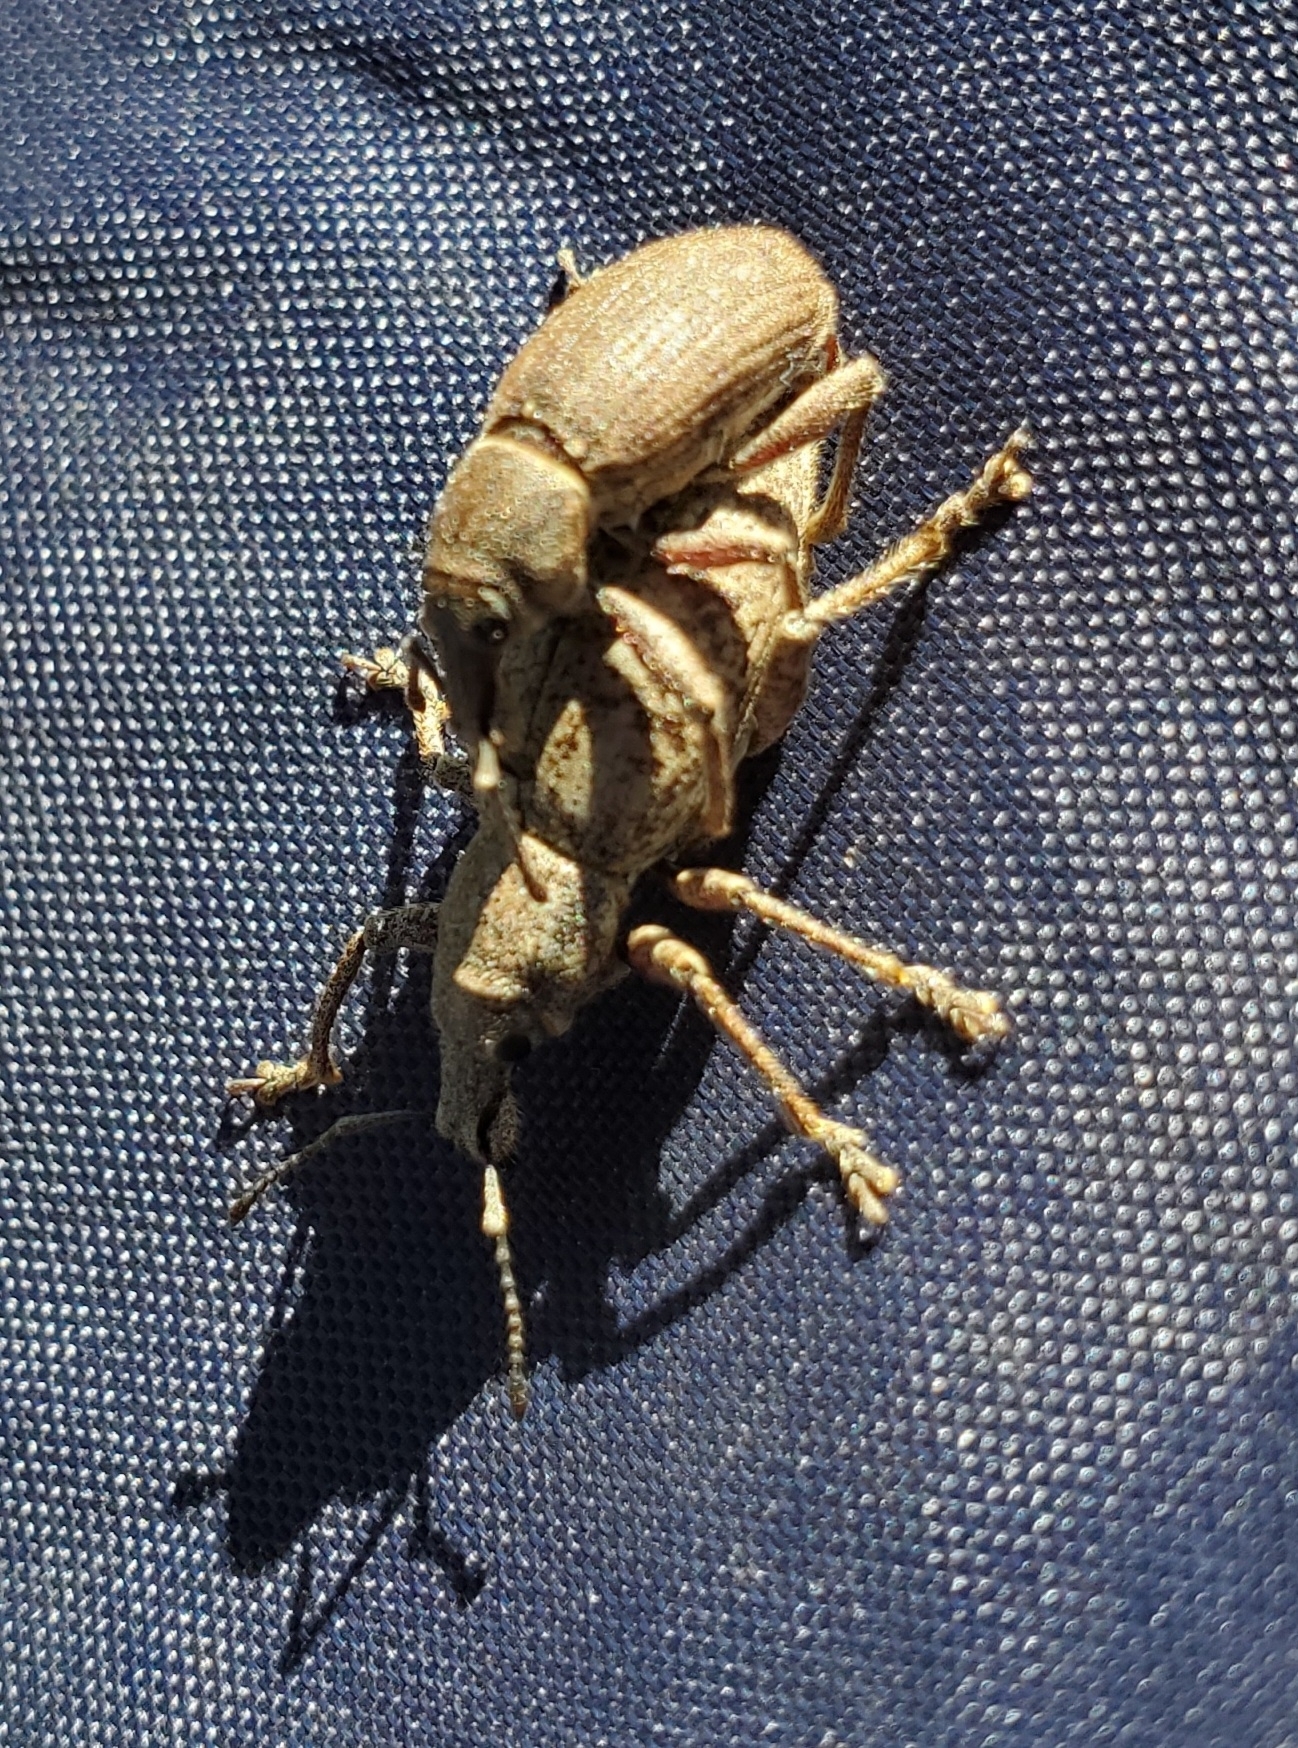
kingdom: Animalia
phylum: Arthropoda
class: Insecta
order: Coleoptera
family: Curculionidae
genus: Adaleres
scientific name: Adaleres ovipennis
